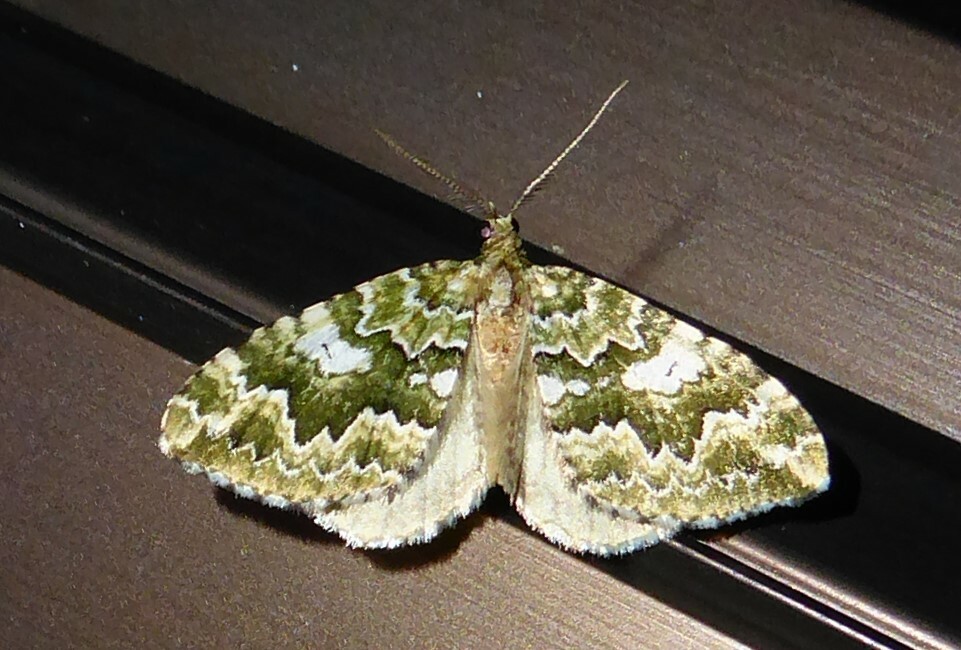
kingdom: Animalia
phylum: Arthropoda
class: Insecta
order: Lepidoptera
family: Geometridae
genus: Asaphodes
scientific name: Asaphodes beata
